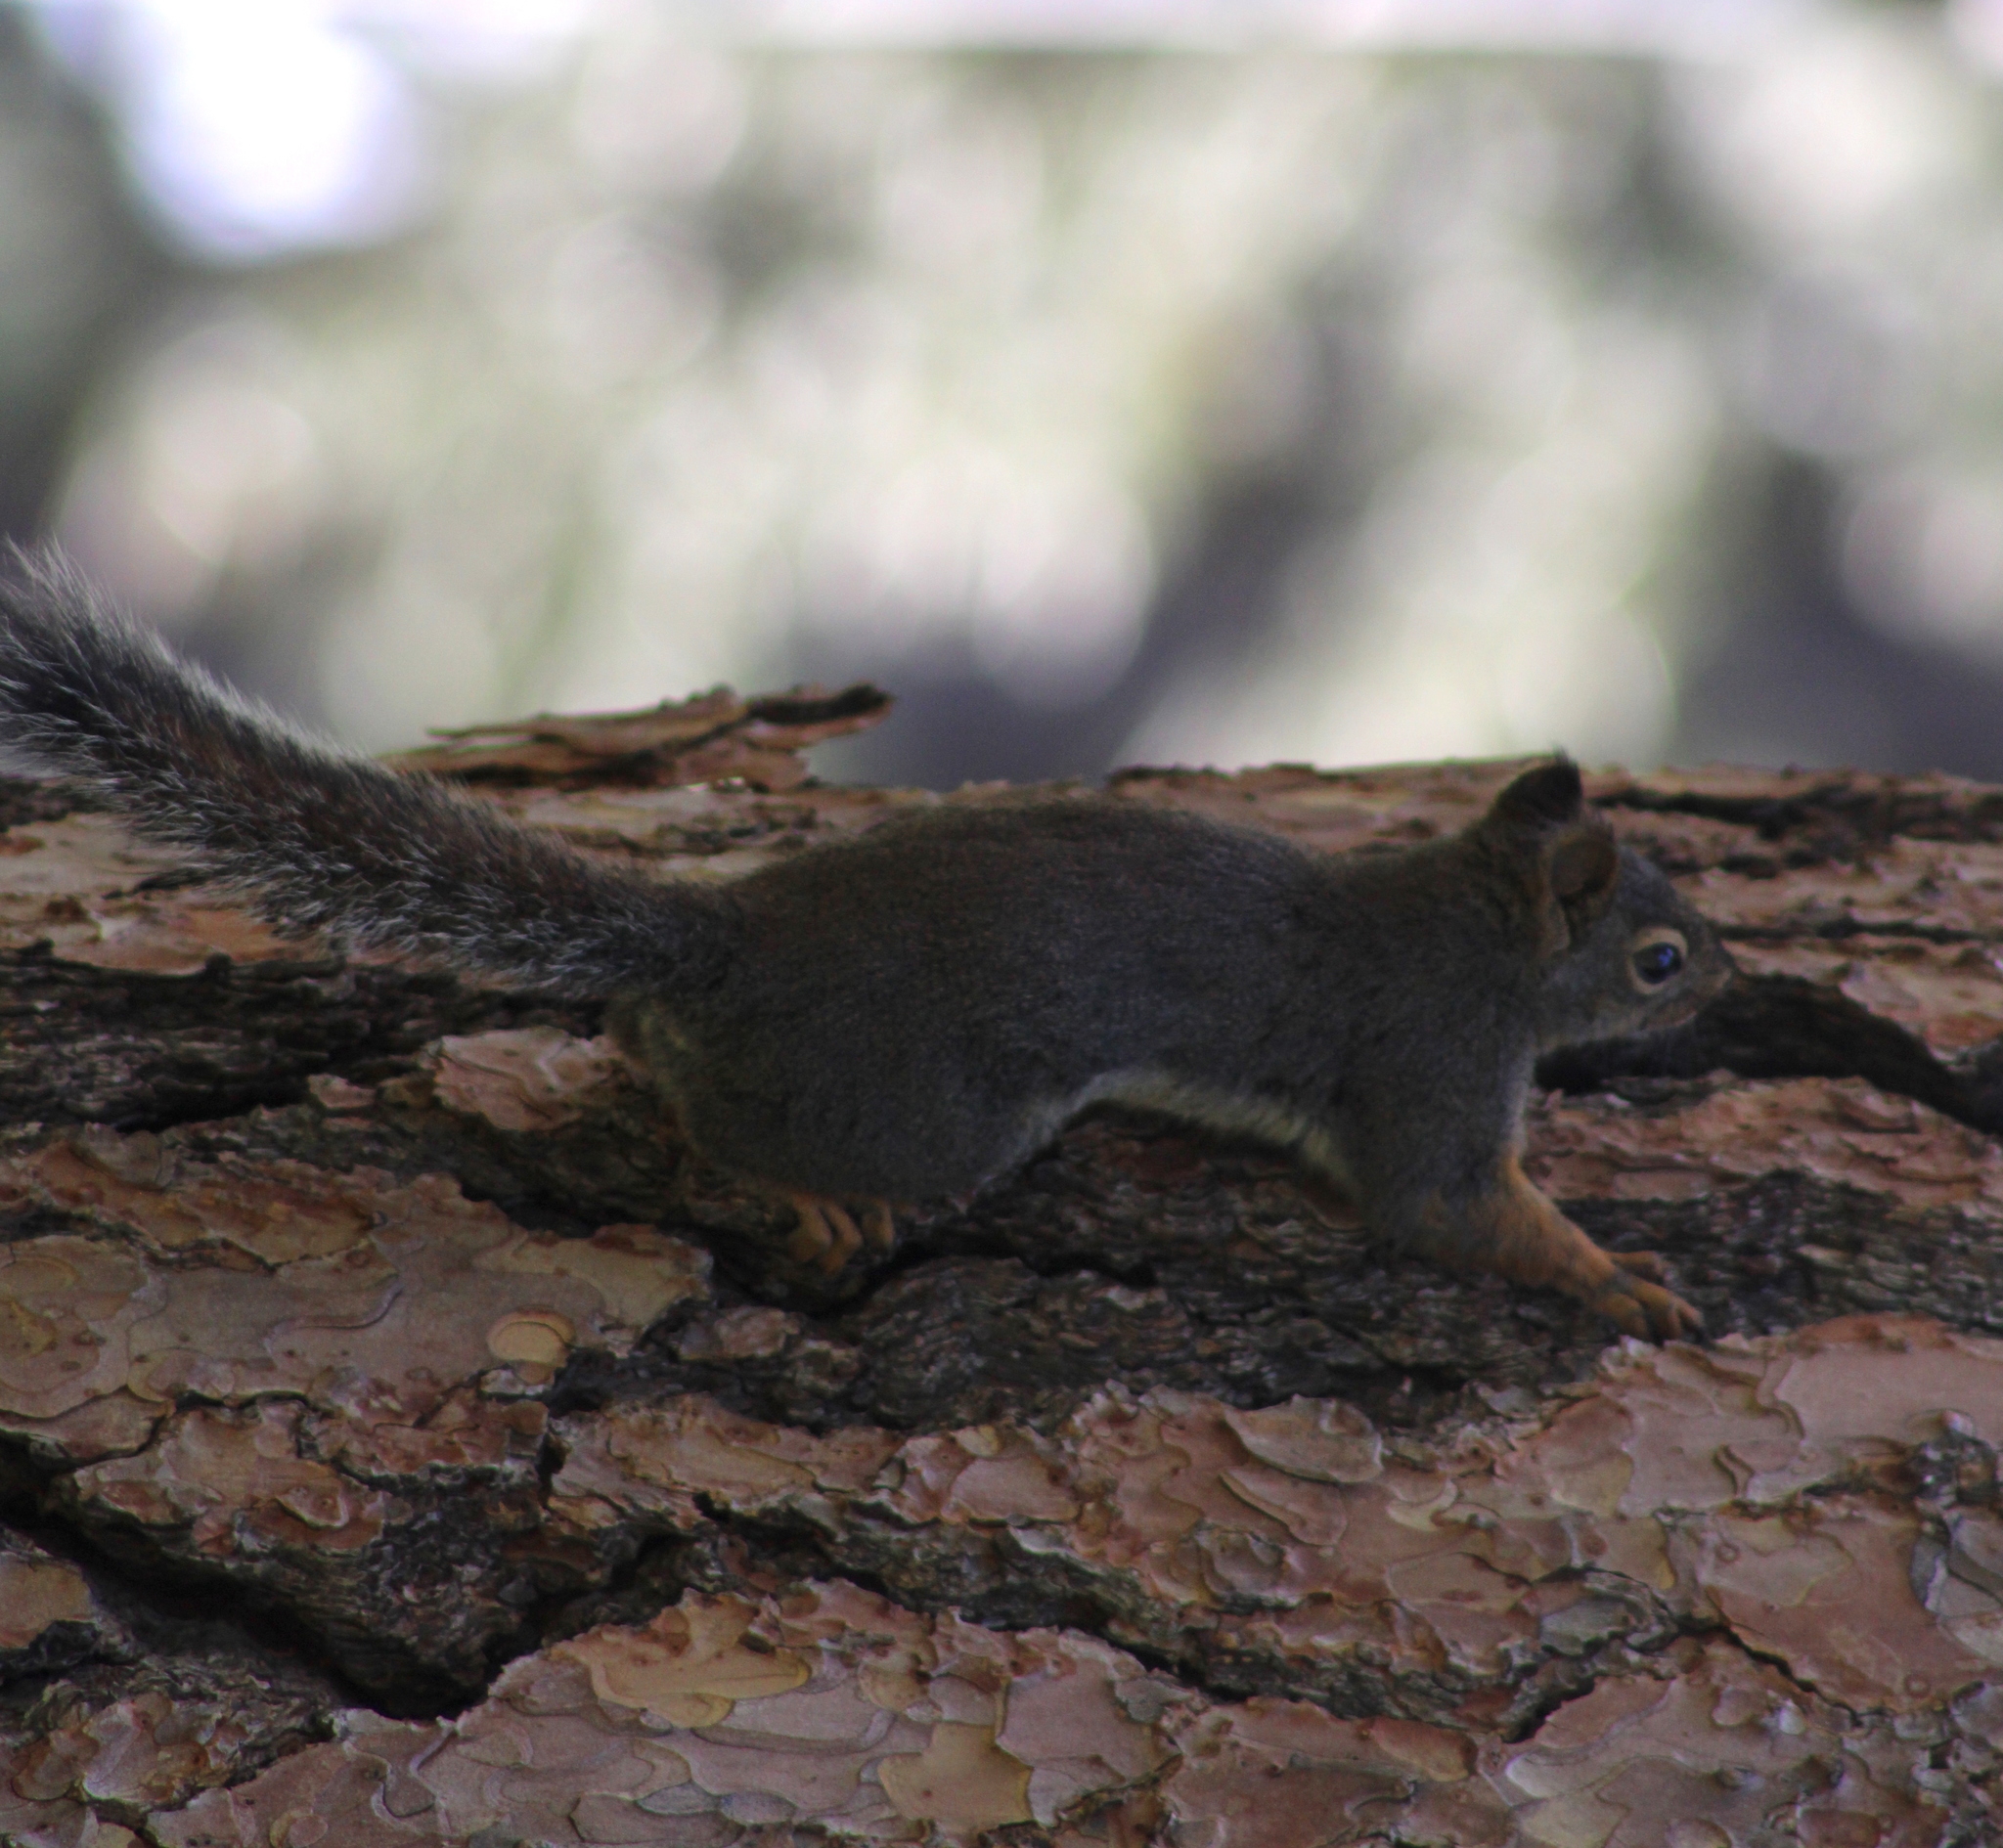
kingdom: Animalia
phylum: Chordata
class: Mammalia
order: Rodentia
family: Sciuridae
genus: Tamiasciurus
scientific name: Tamiasciurus douglasii
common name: Douglas's squirrel
